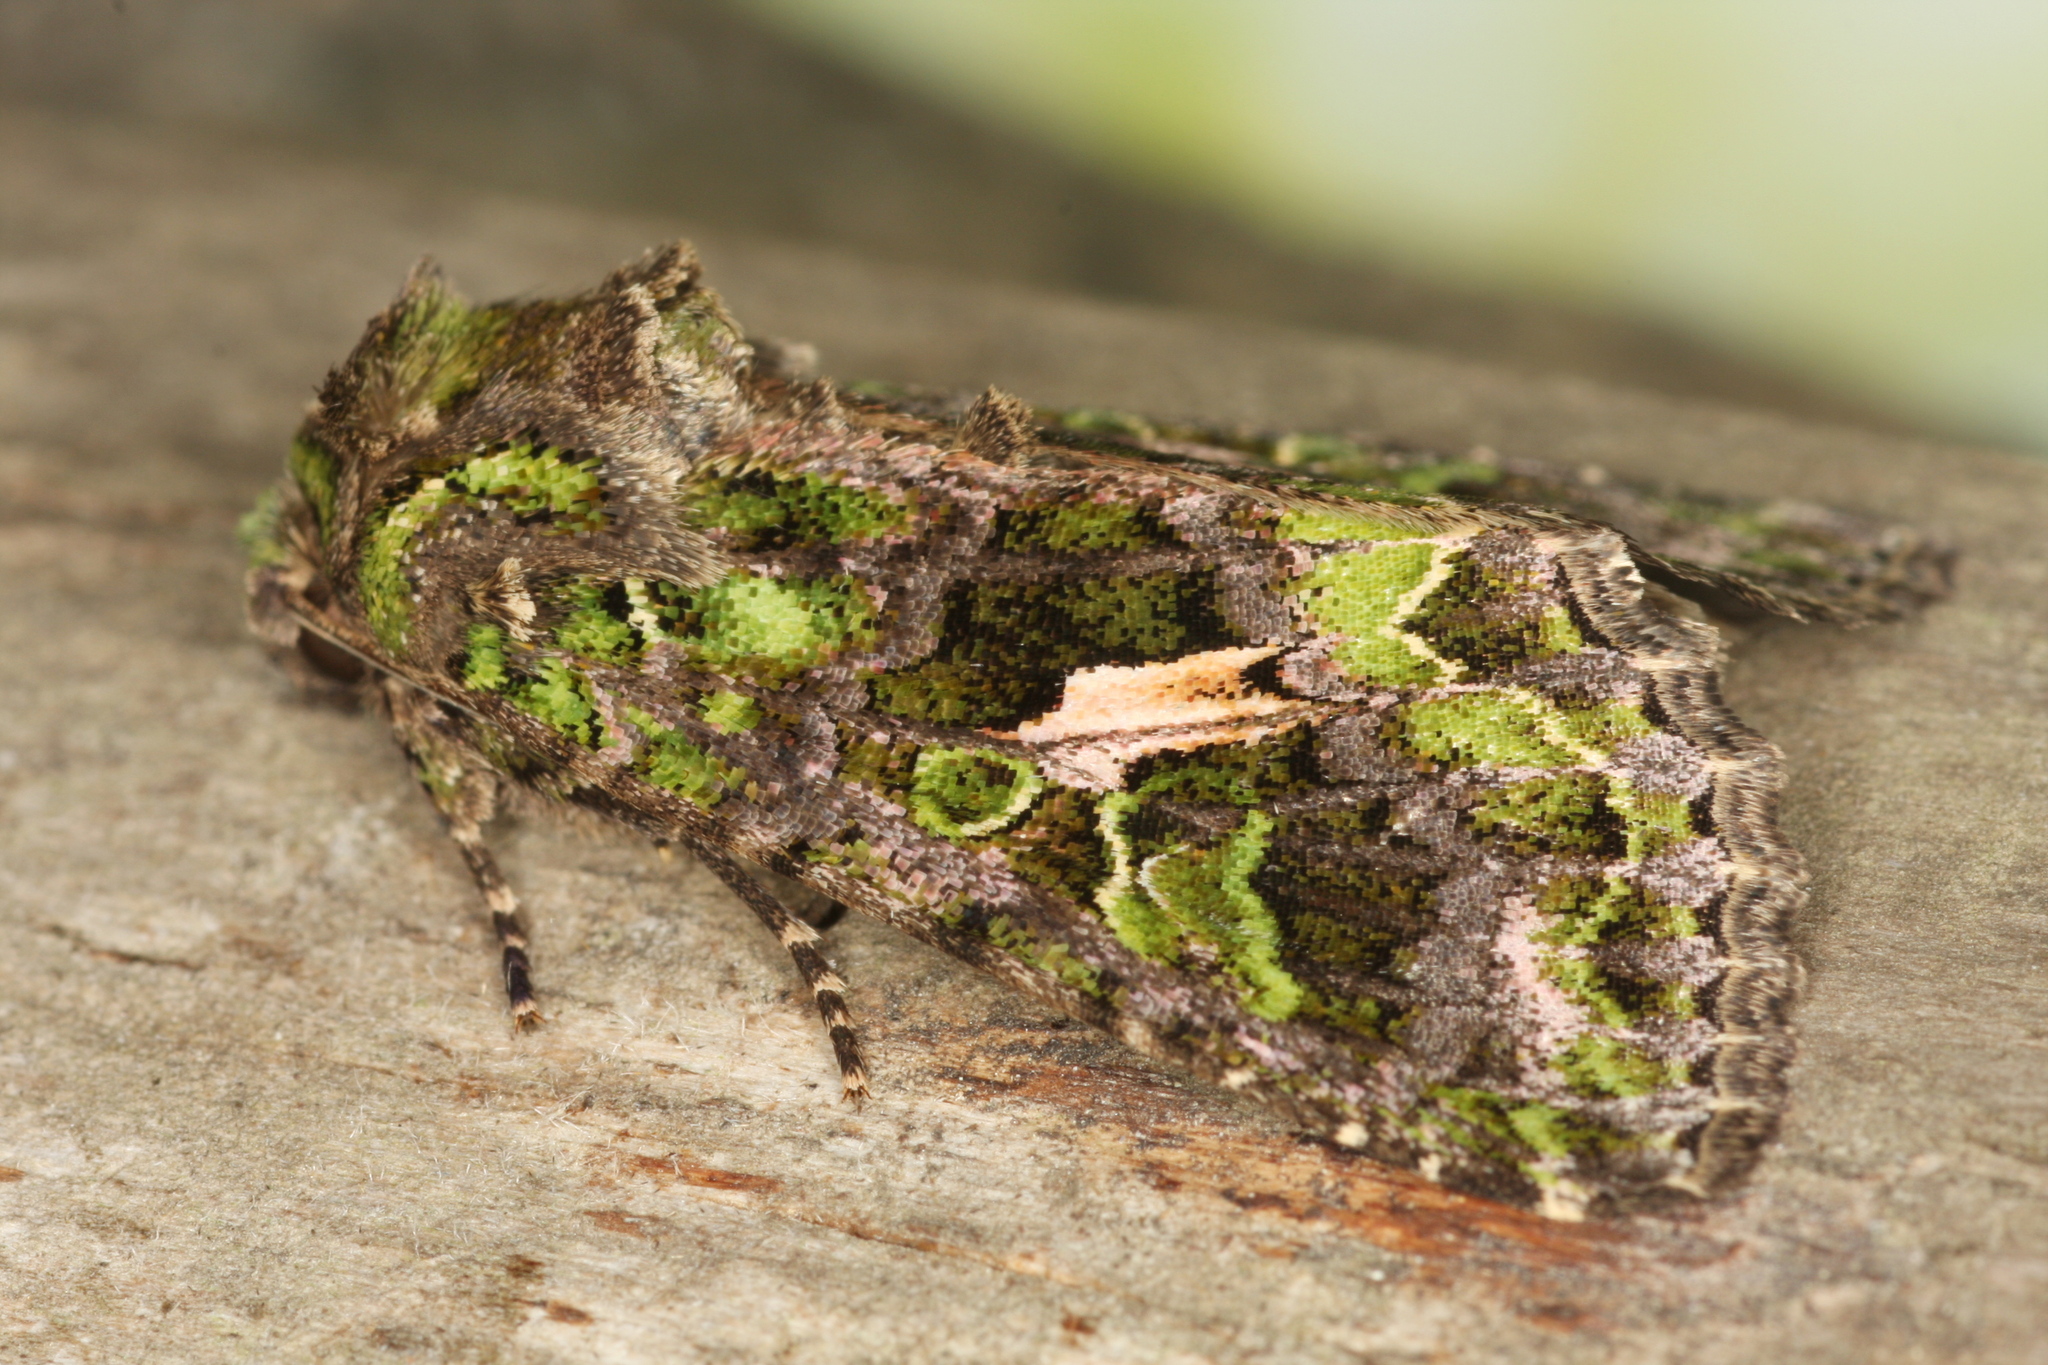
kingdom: Animalia
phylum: Arthropoda
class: Insecta
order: Lepidoptera
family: Noctuidae
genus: Trachea
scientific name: Trachea atriplicis
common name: Orache moth
